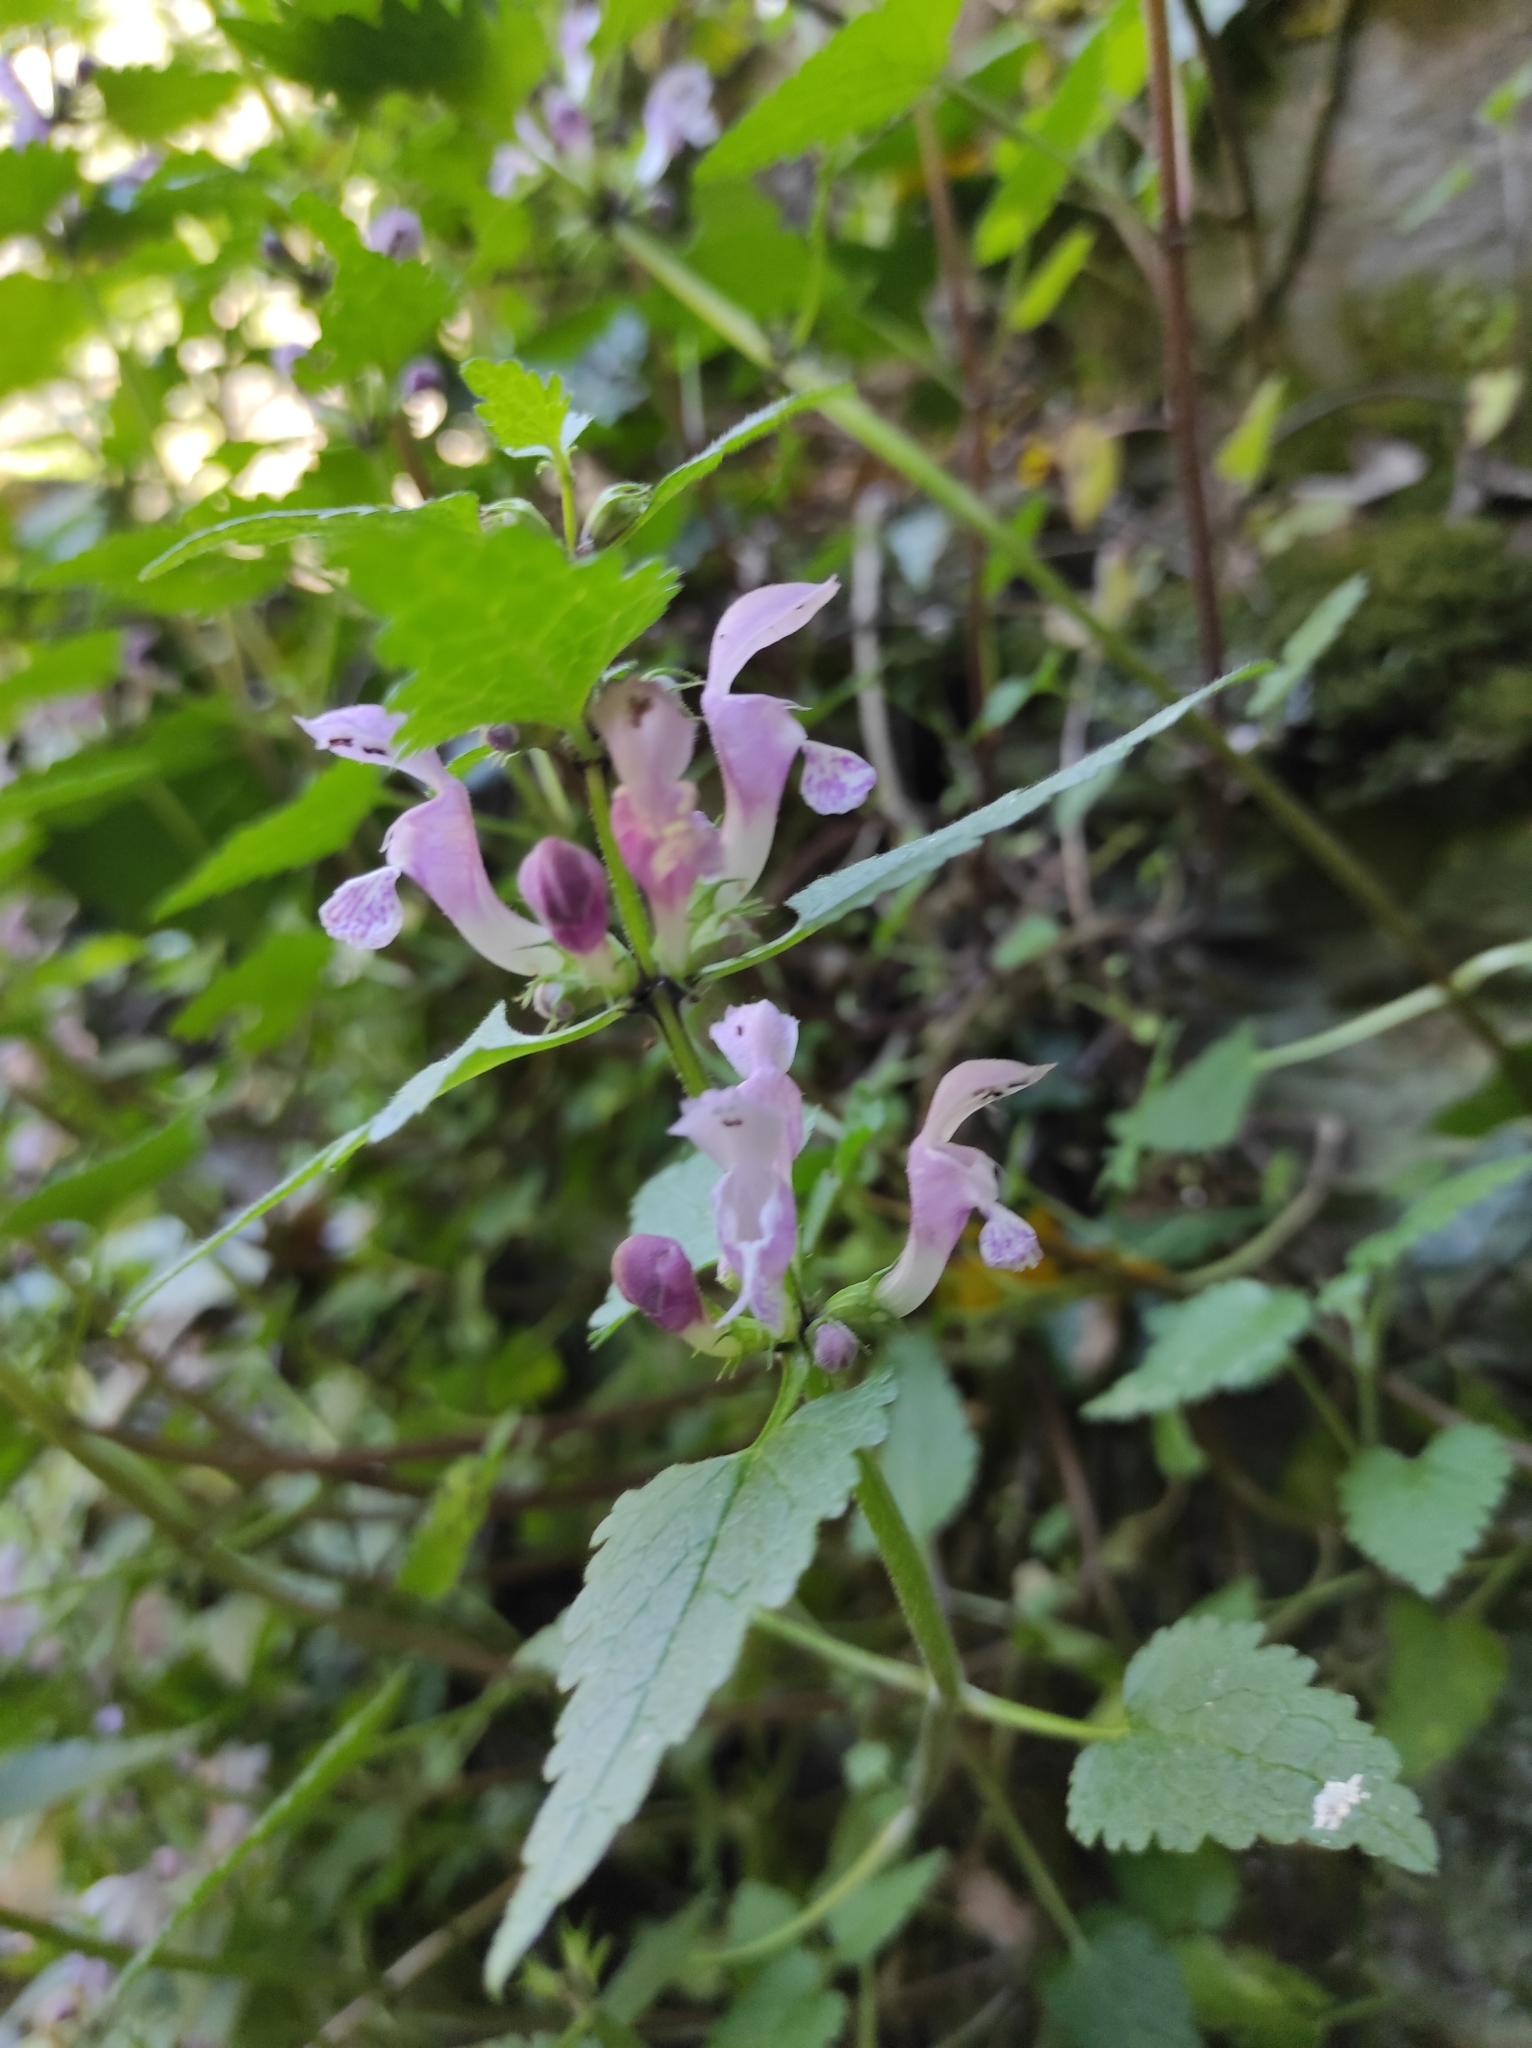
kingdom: Plantae
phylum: Tracheophyta
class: Magnoliopsida
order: Lamiales
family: Lamiaceae
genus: Lamium
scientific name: Lamium maculatum
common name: Spotted dead-nettle
